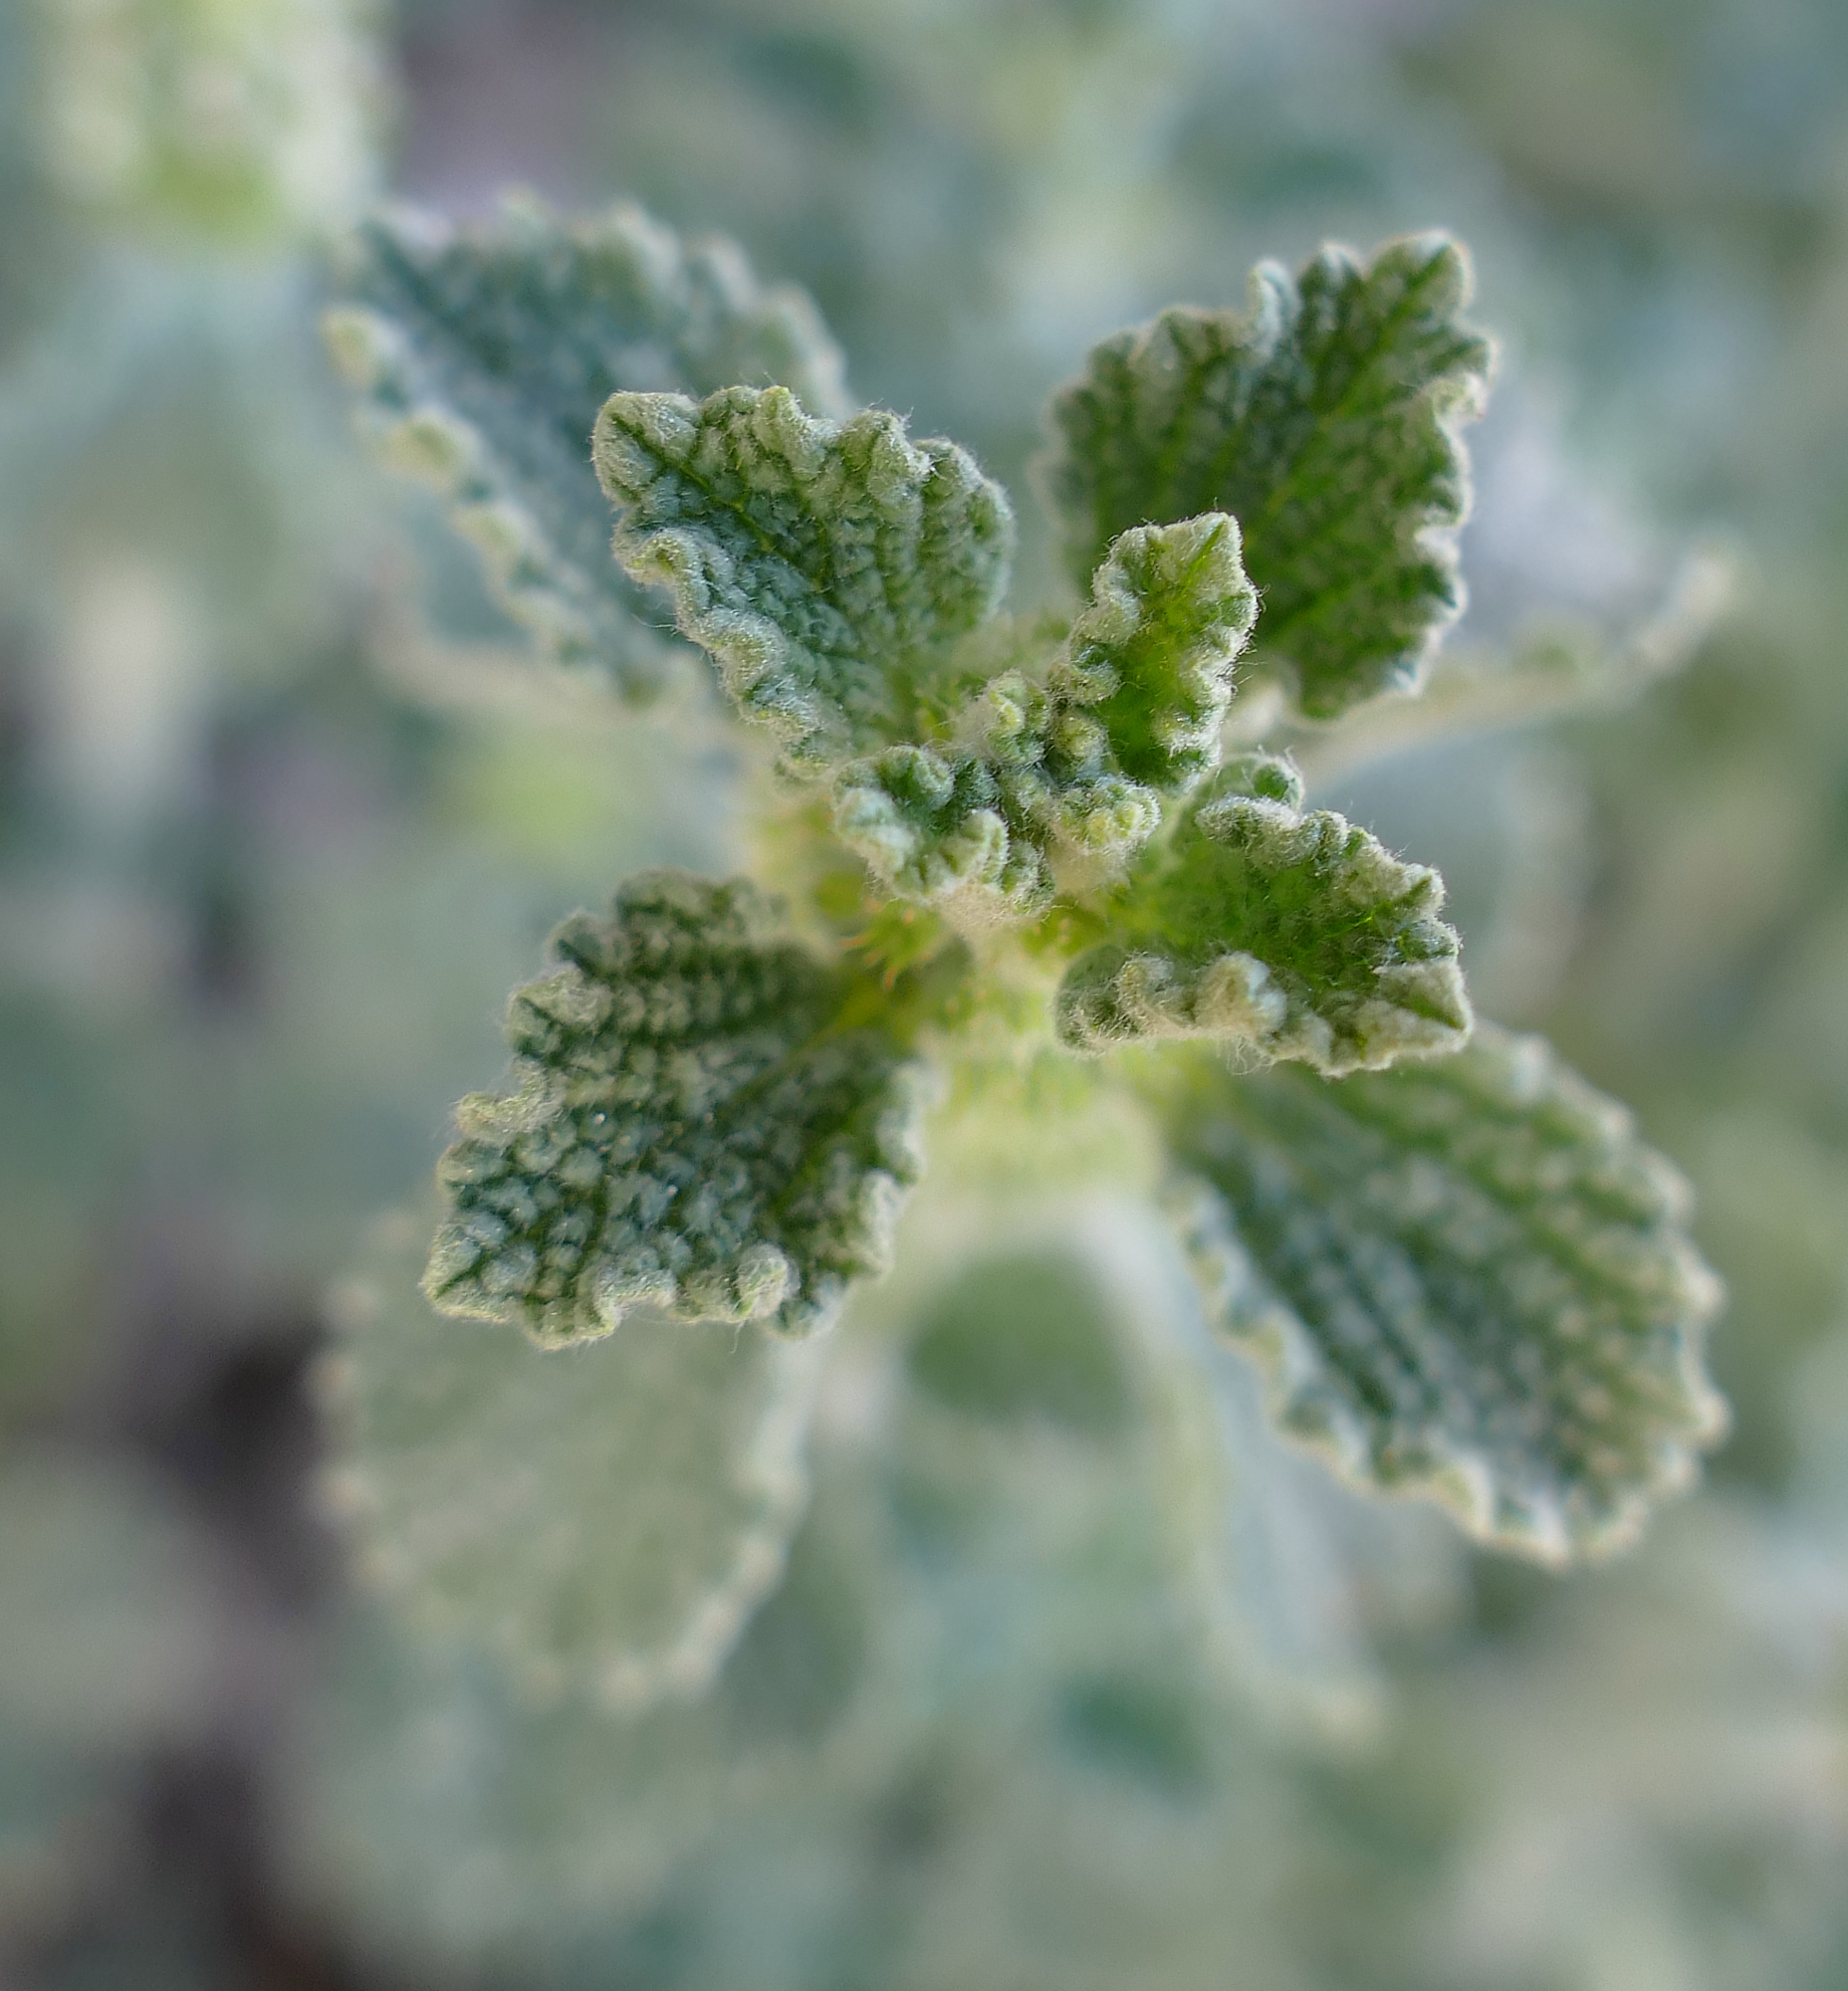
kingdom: Plantae
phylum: Tracheophyta
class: Magnoliopsida
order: Lamiales
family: Lamiaceae
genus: Marrubium
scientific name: Marrubium vulgare
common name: Horehound
